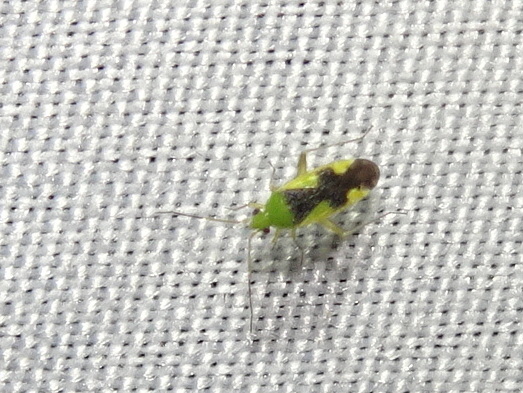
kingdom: Animalia
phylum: Arthropoda
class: Insecta
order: Hemiptera
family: Miridae
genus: Reuteroscopus
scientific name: Reuteroscopus ornatus
